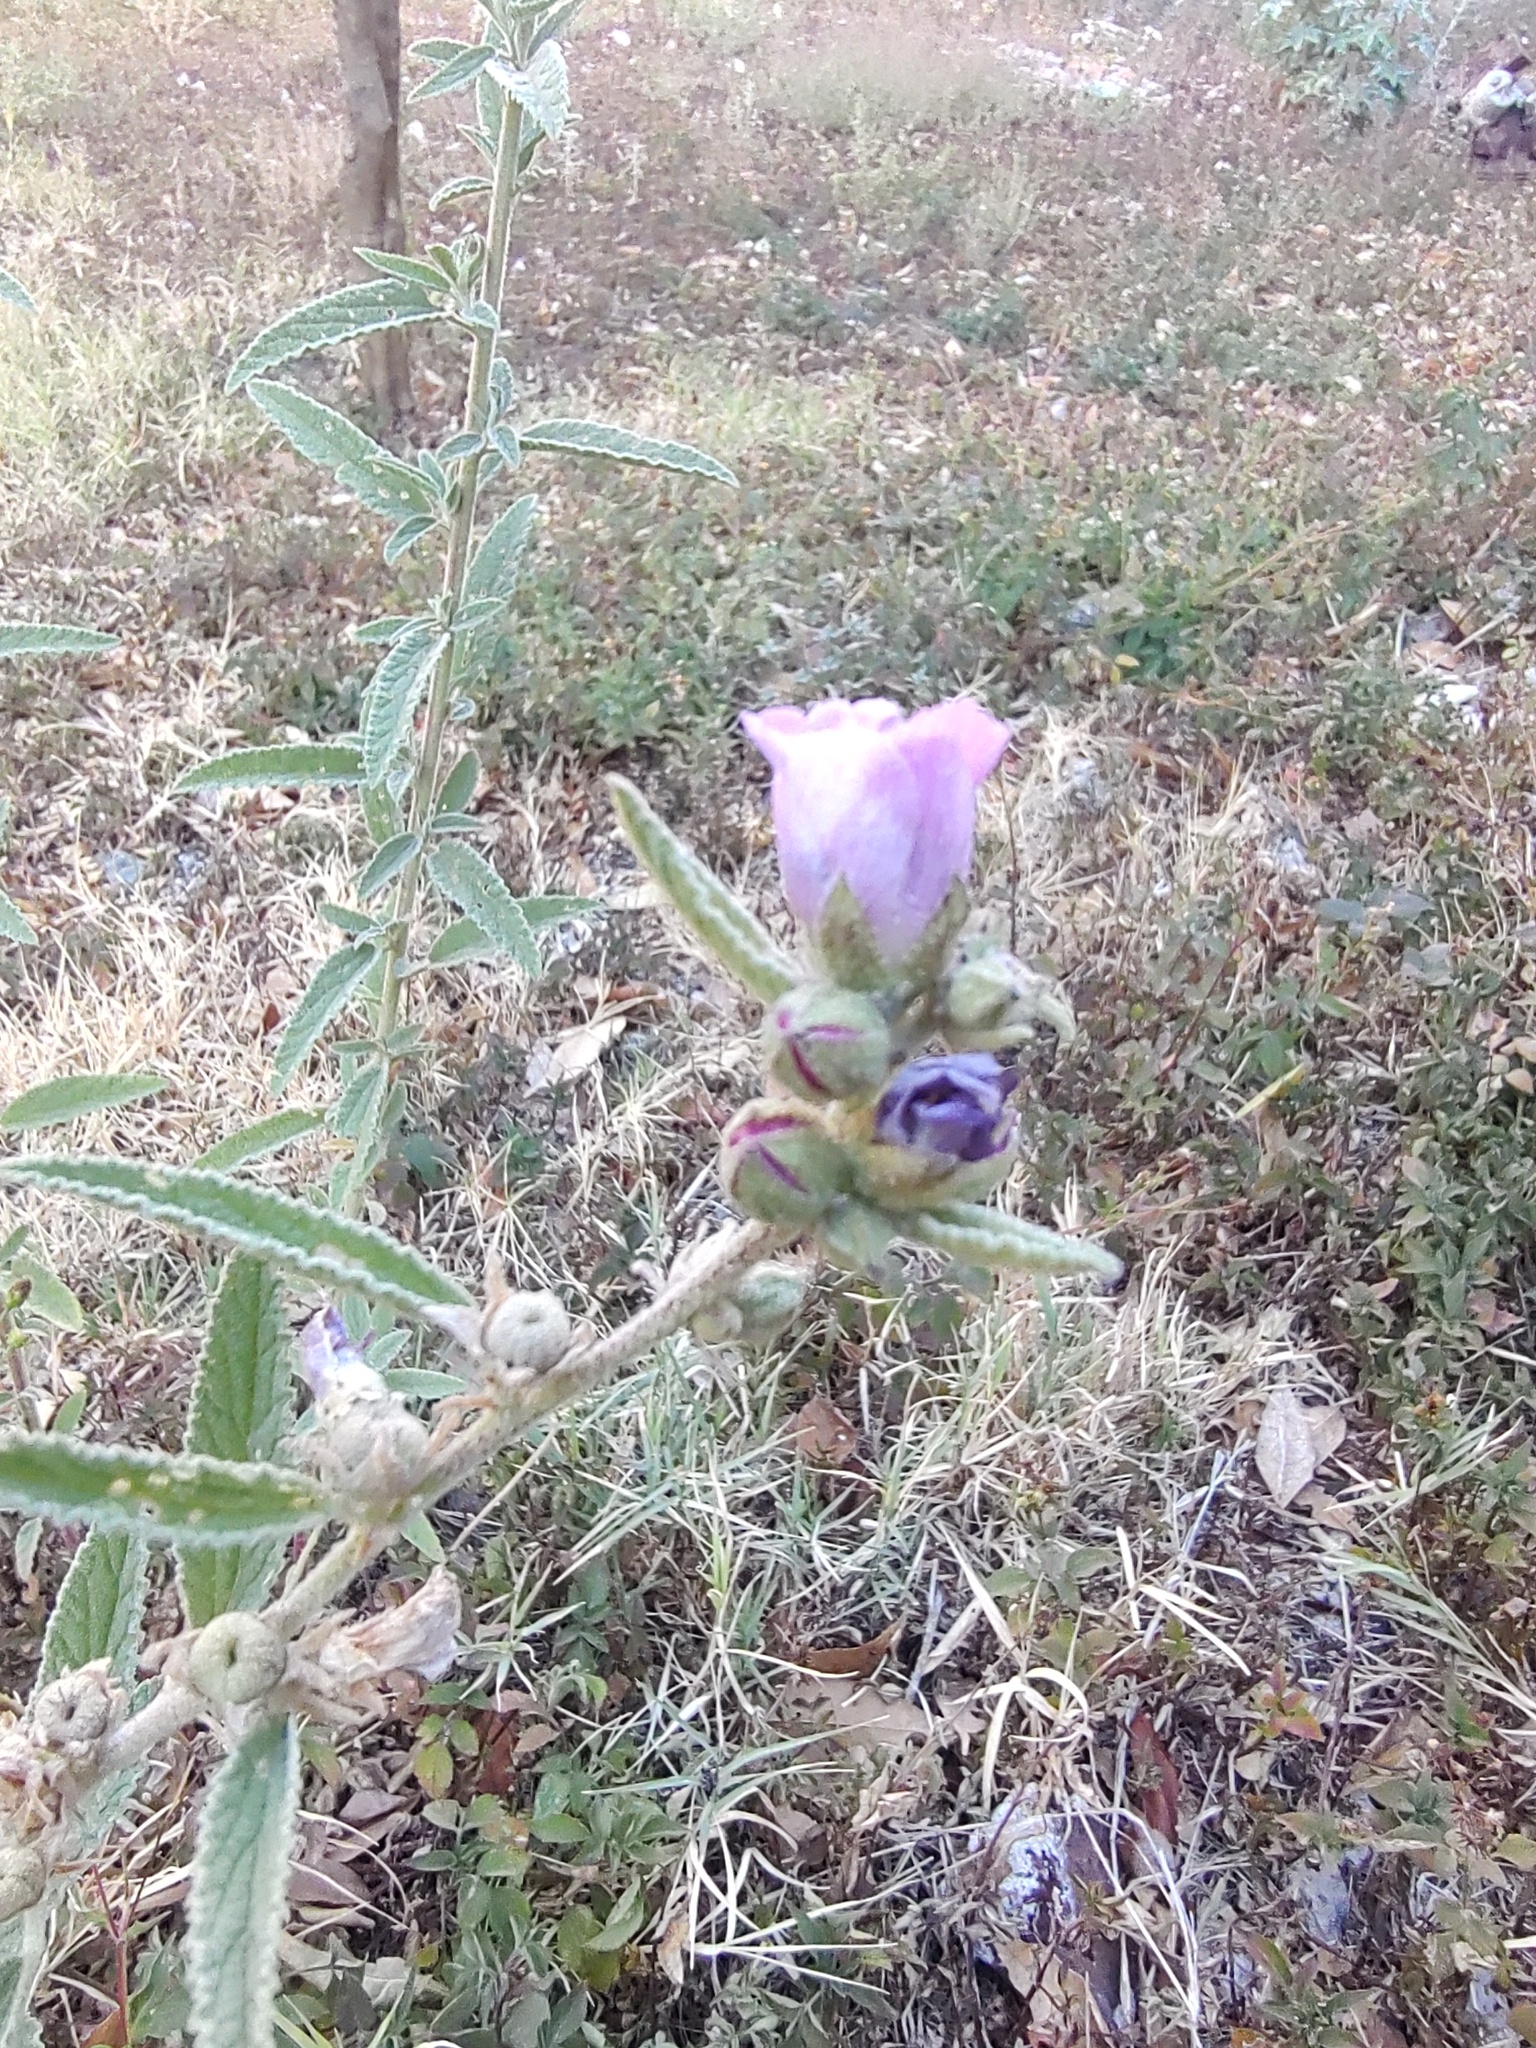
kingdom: Plantae
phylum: Tracheophyta
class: Magnoliopsida
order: Malvales
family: Malvaceae
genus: Sphaeralcea
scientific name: Sphaeralcea angustifolia
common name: Copper globe-mallow
